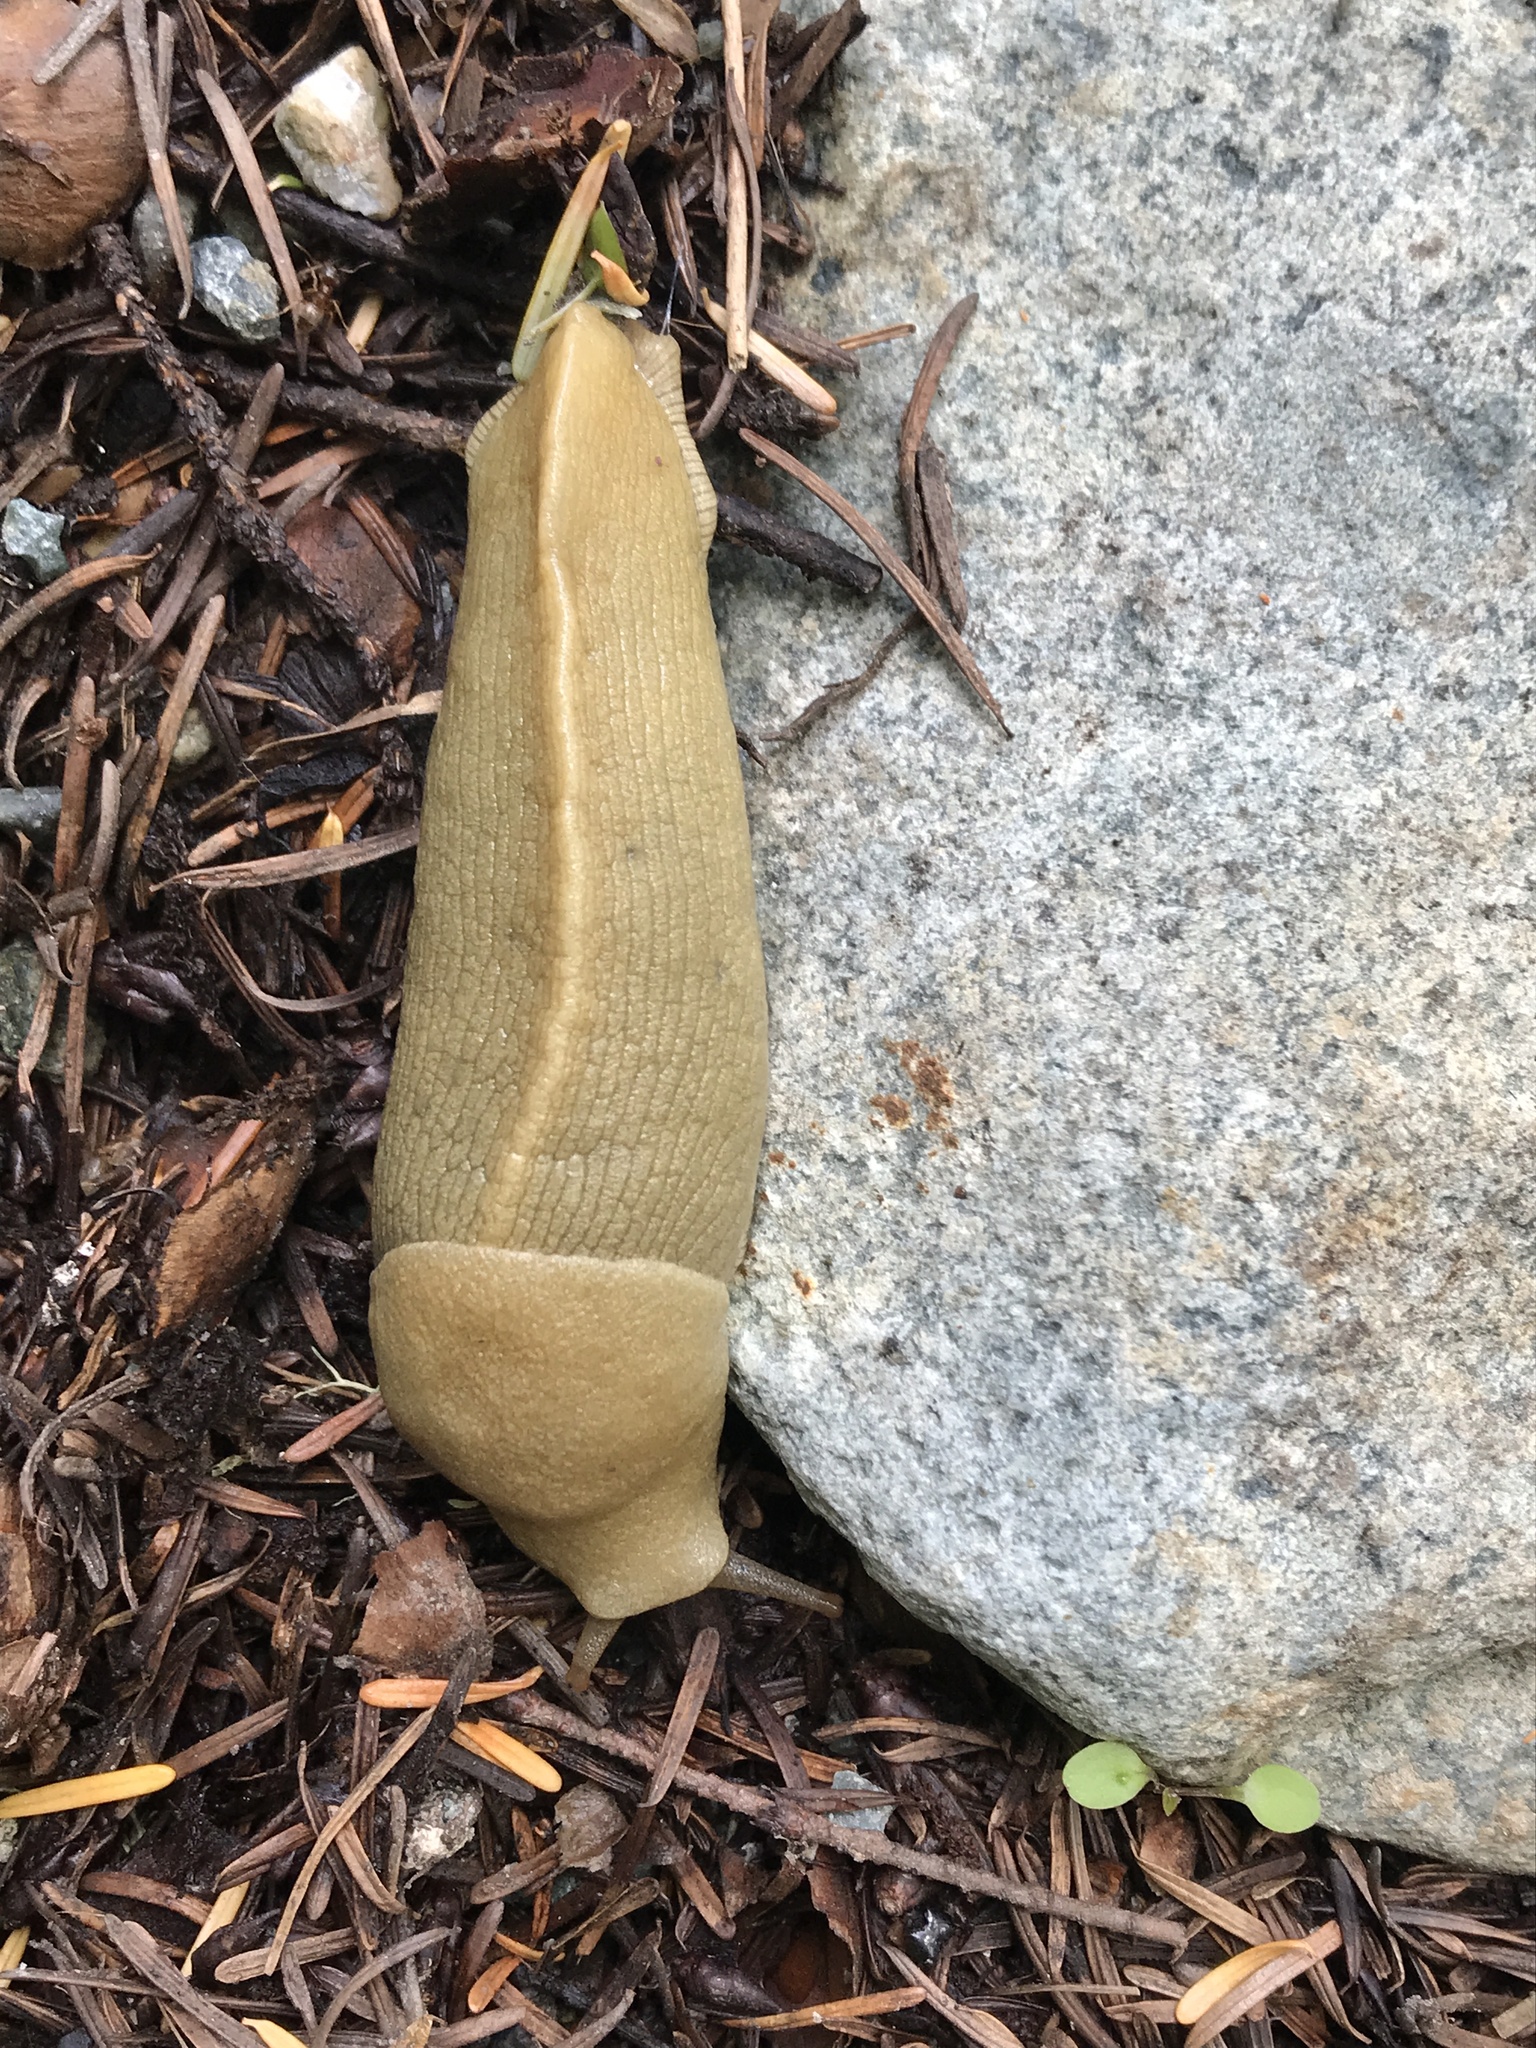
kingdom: Animalia
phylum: Mollusca
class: Gastropoda
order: Stylommatophora
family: Ariolimacidae
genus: Ariolimax
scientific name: Ariolimax columbianus
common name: Pacific banana slug
